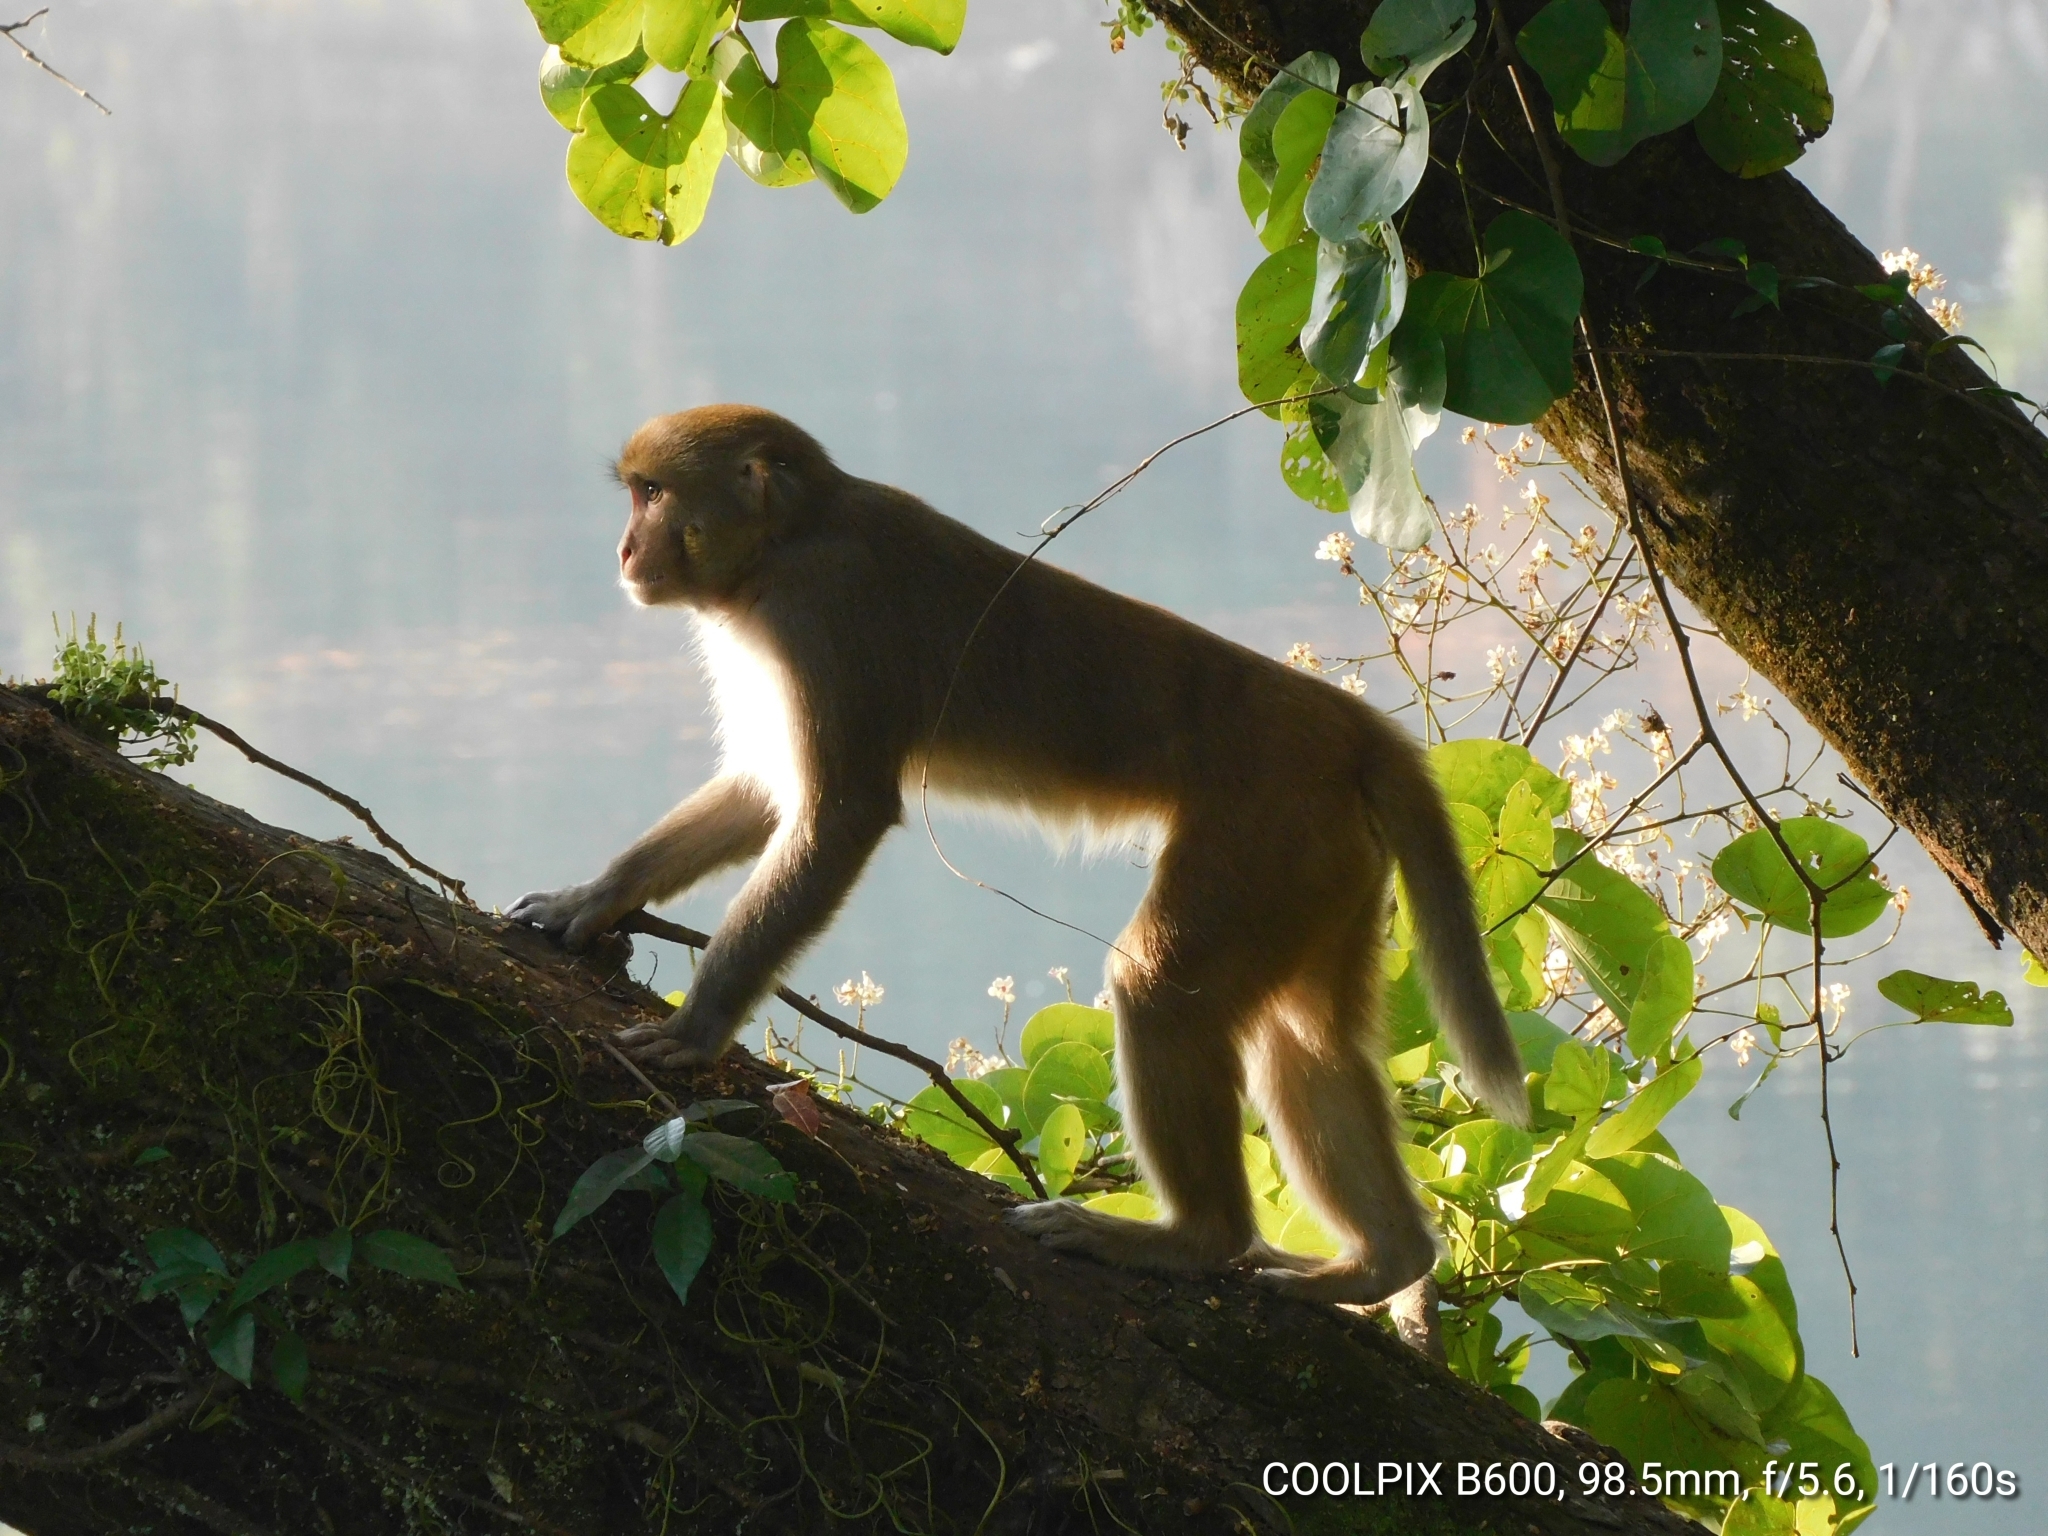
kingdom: Animalia
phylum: Chordata
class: Mammalia
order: Primates
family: Cercopithecidae
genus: Macaca
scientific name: Macaca mulatta
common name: Rhesus monkey
